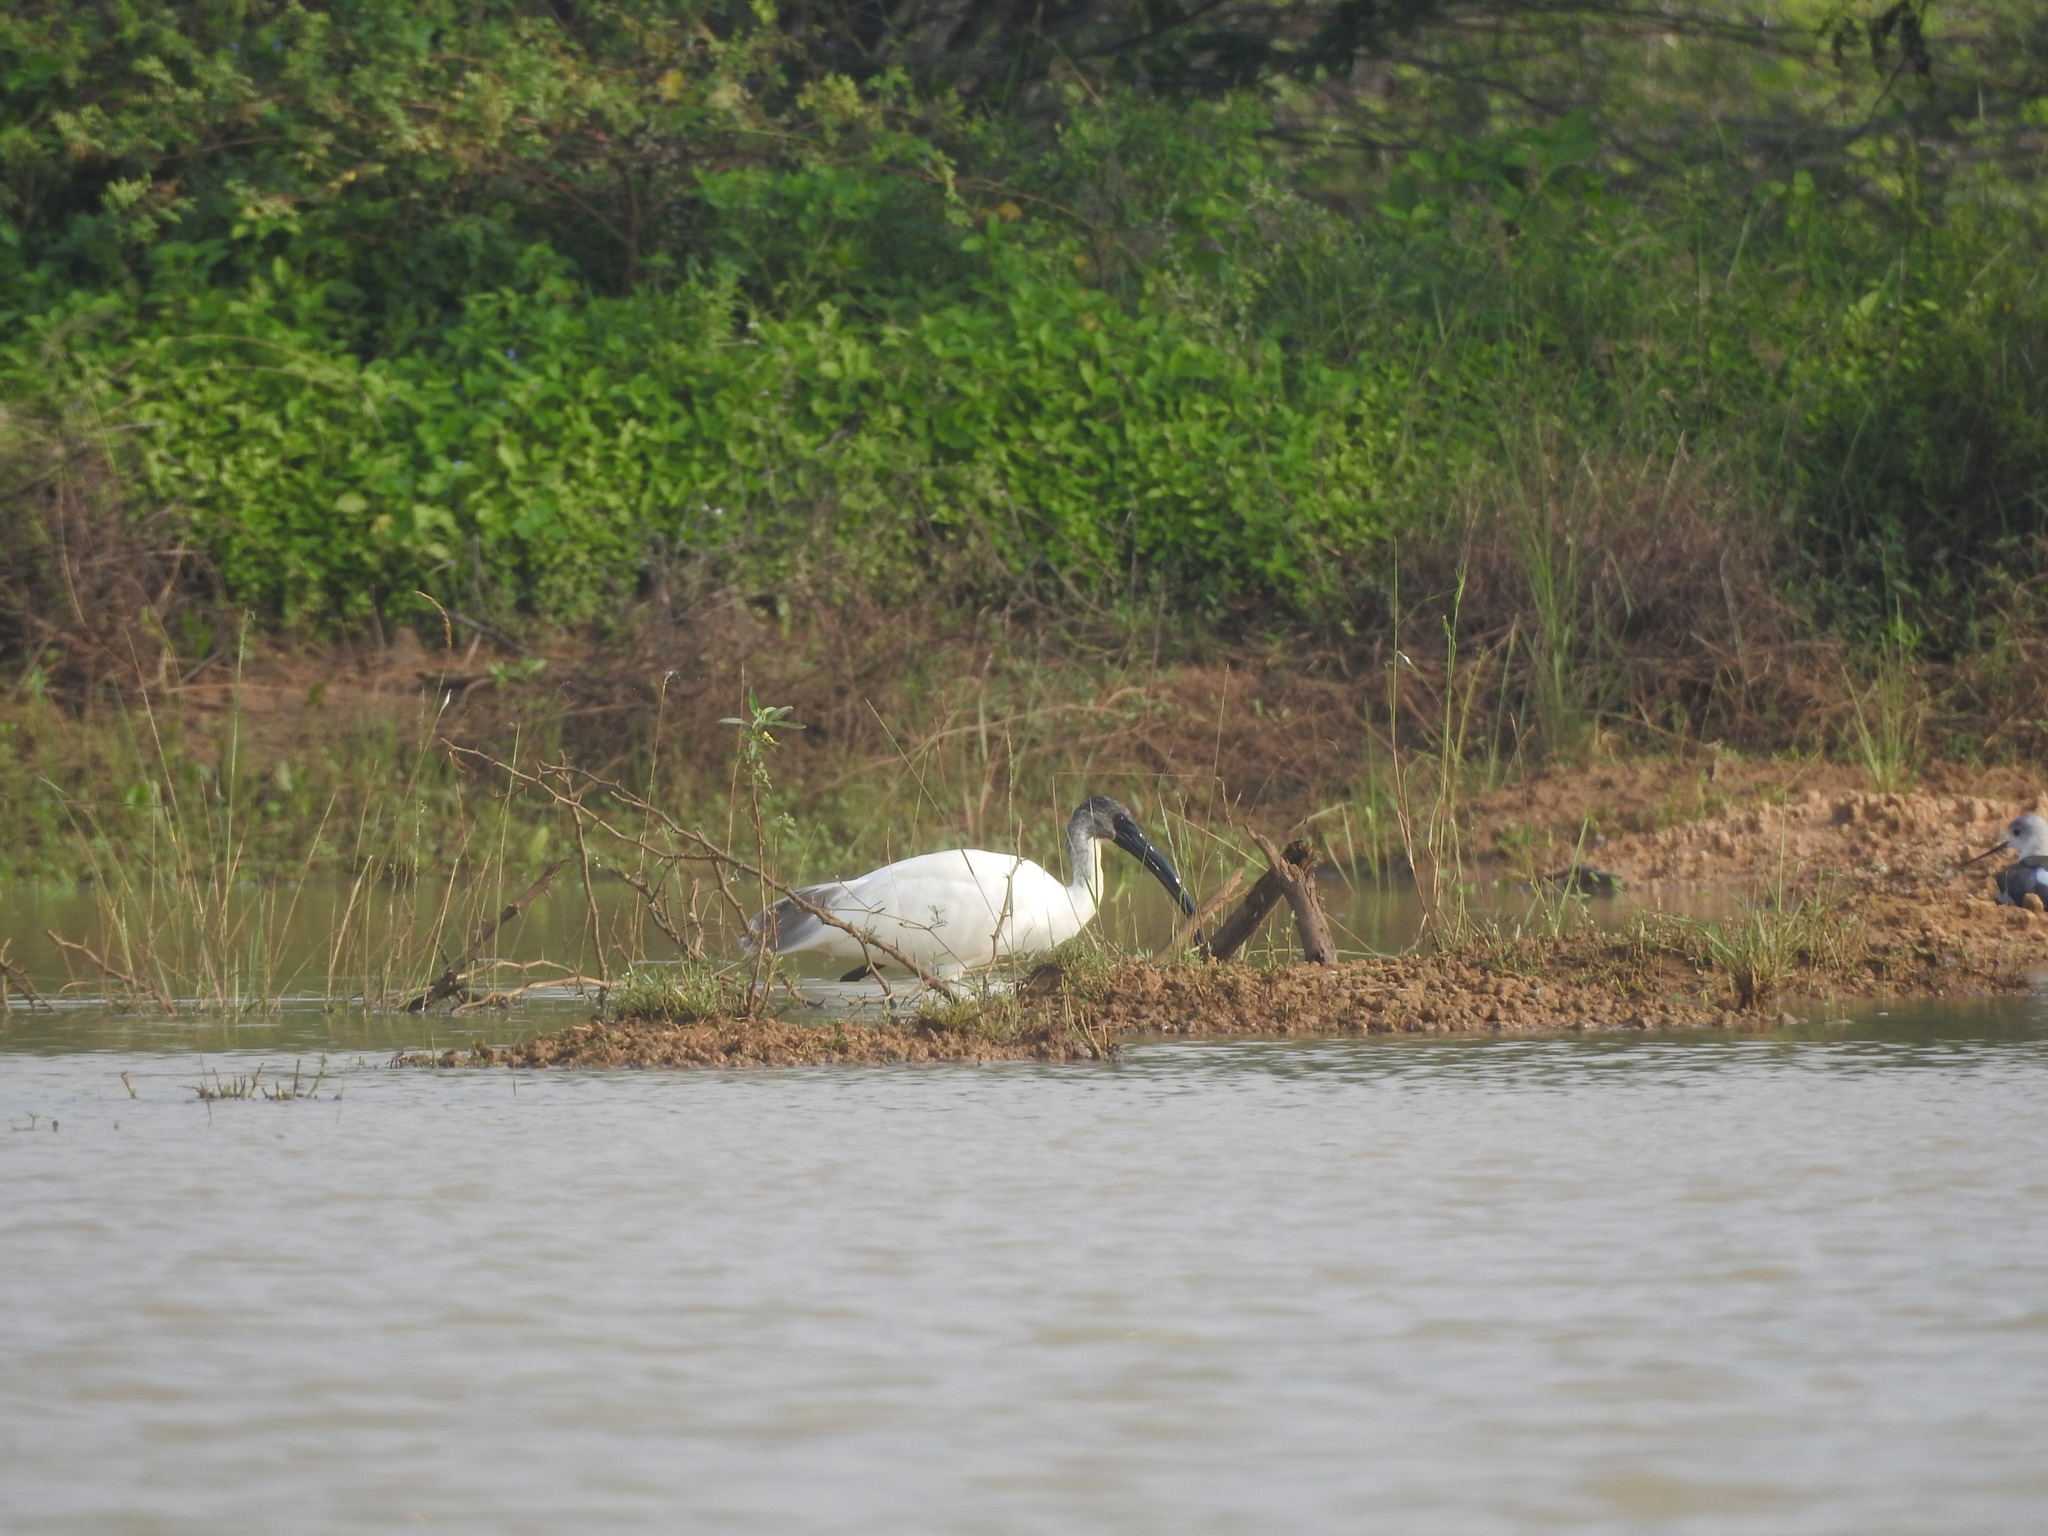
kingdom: Animalia
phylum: Chordata
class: Aves
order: Pelecaniformes
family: Threskiornithidae
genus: Threskiornis
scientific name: Threskiornis melanocephalus
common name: Black-headed ibis
